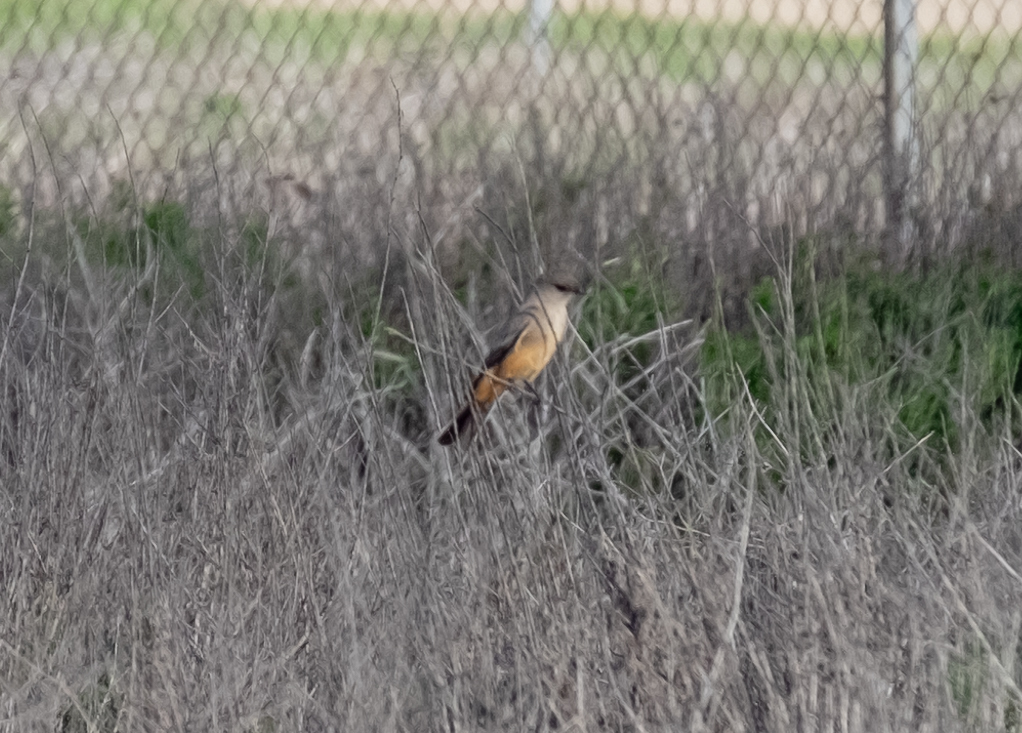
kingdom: Animalia
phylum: Chordata
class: Aves
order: Passeriformes
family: Tyrannidae
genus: Sayornis
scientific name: Sayornis saya
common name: Say's phoebe
